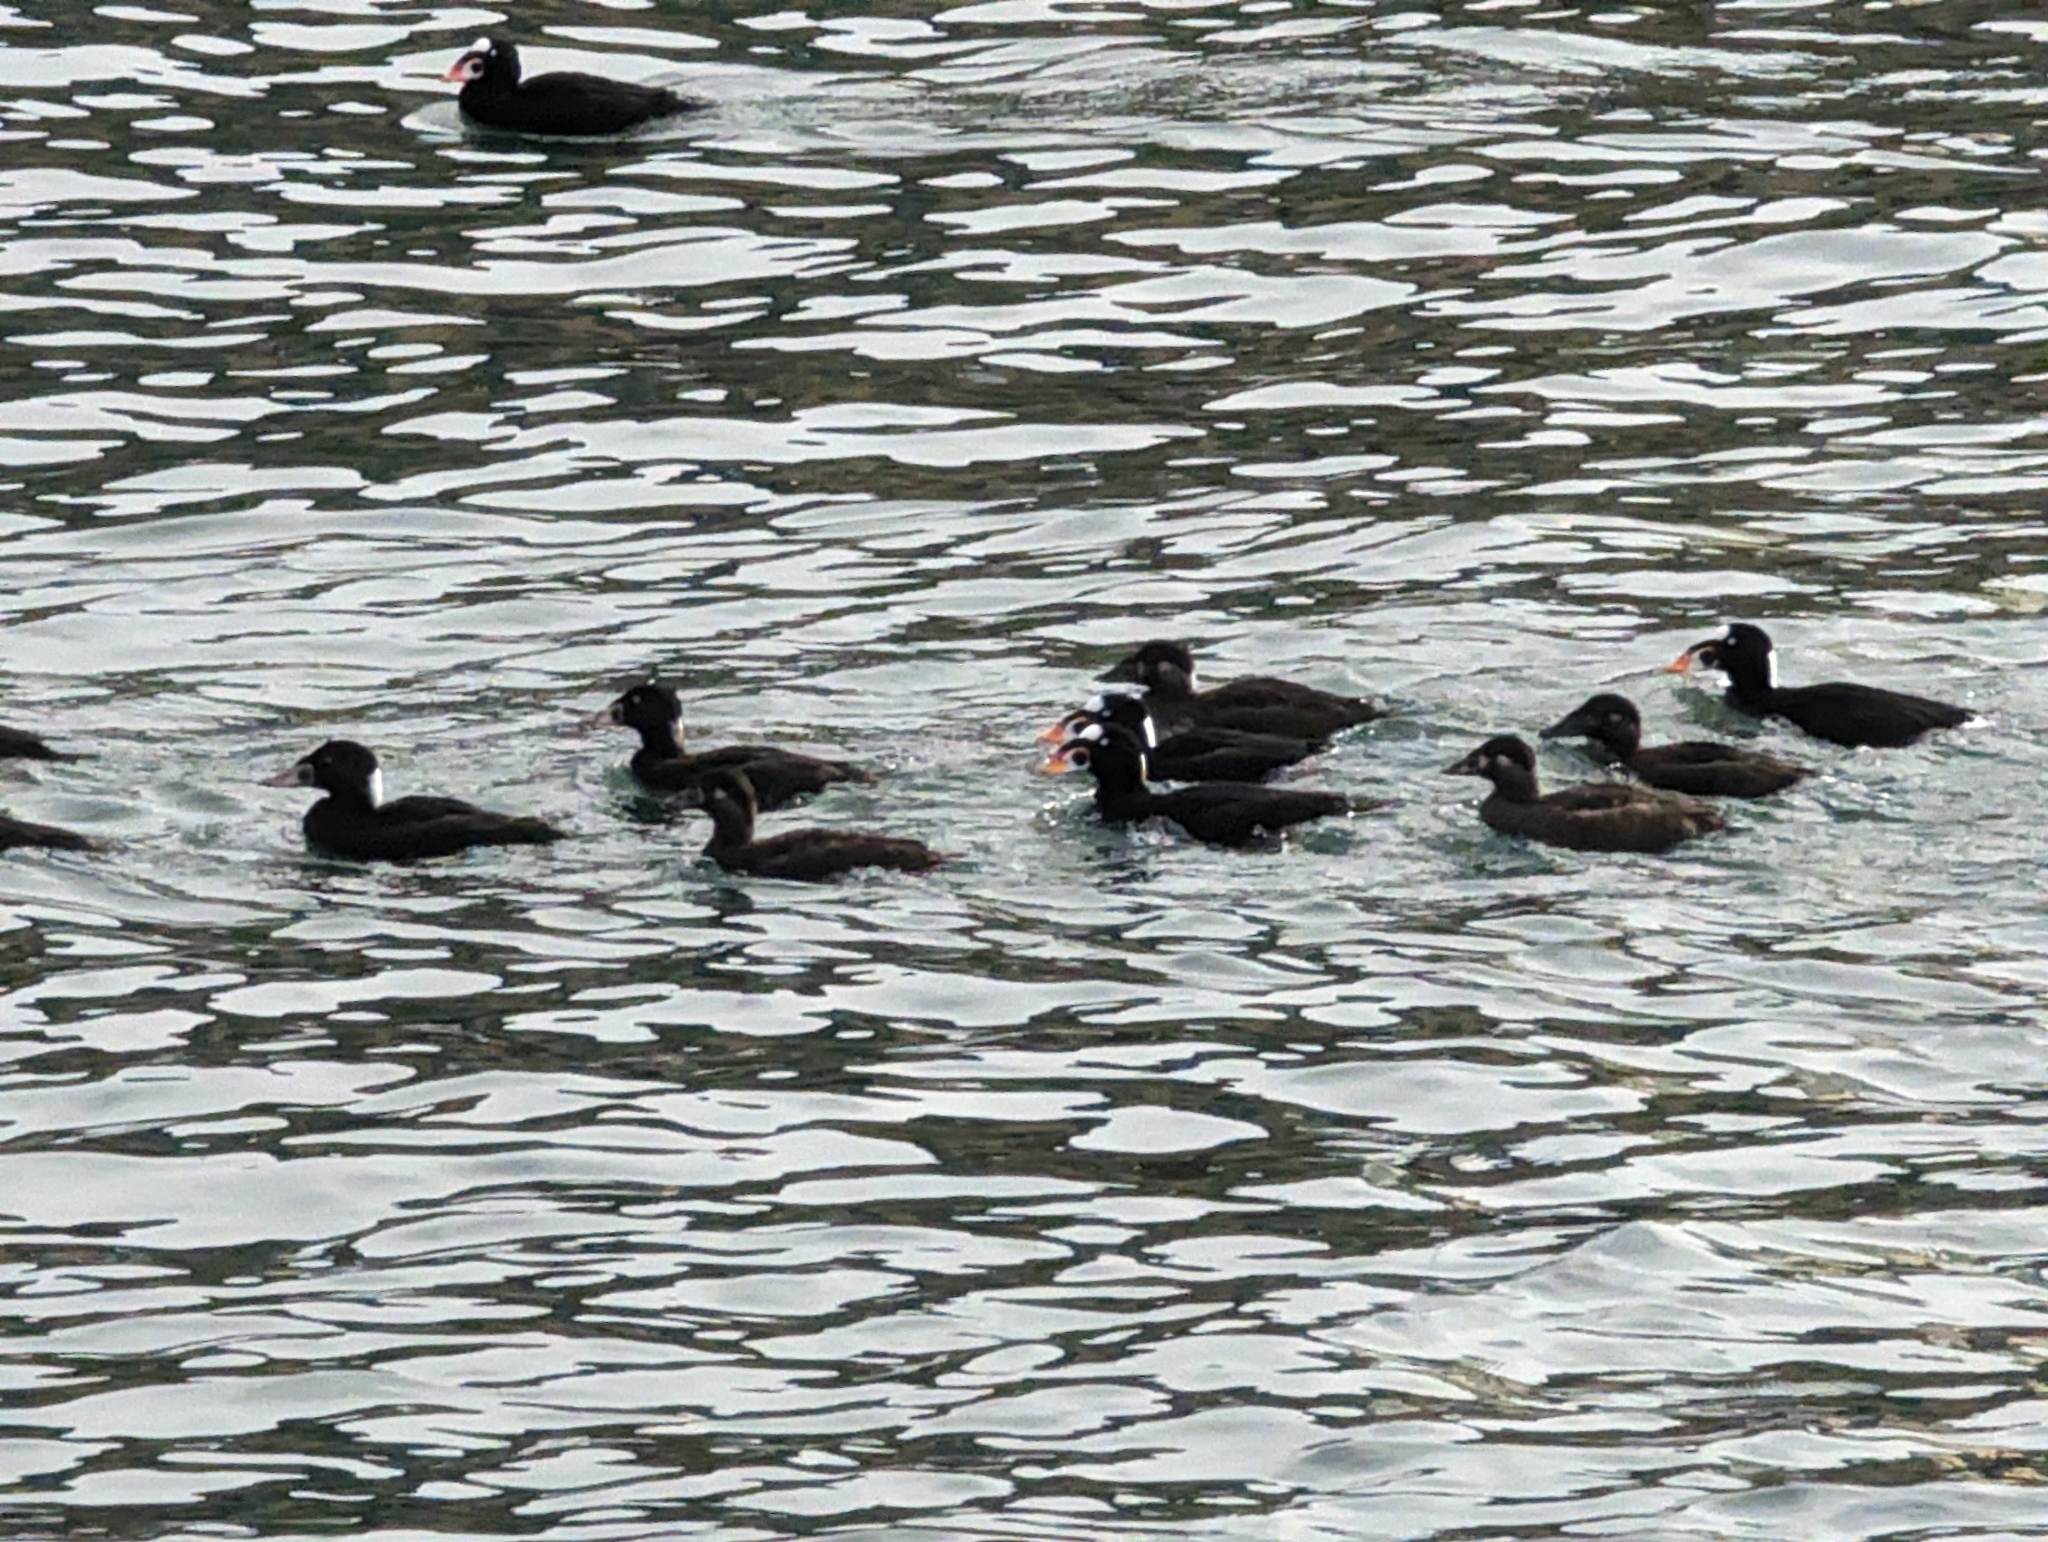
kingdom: Animalia
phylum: Chordata
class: Aves
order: Anseriformes
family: Anatidae
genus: Melanitta
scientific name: Melanitta perspicillata
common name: Surf scoter
